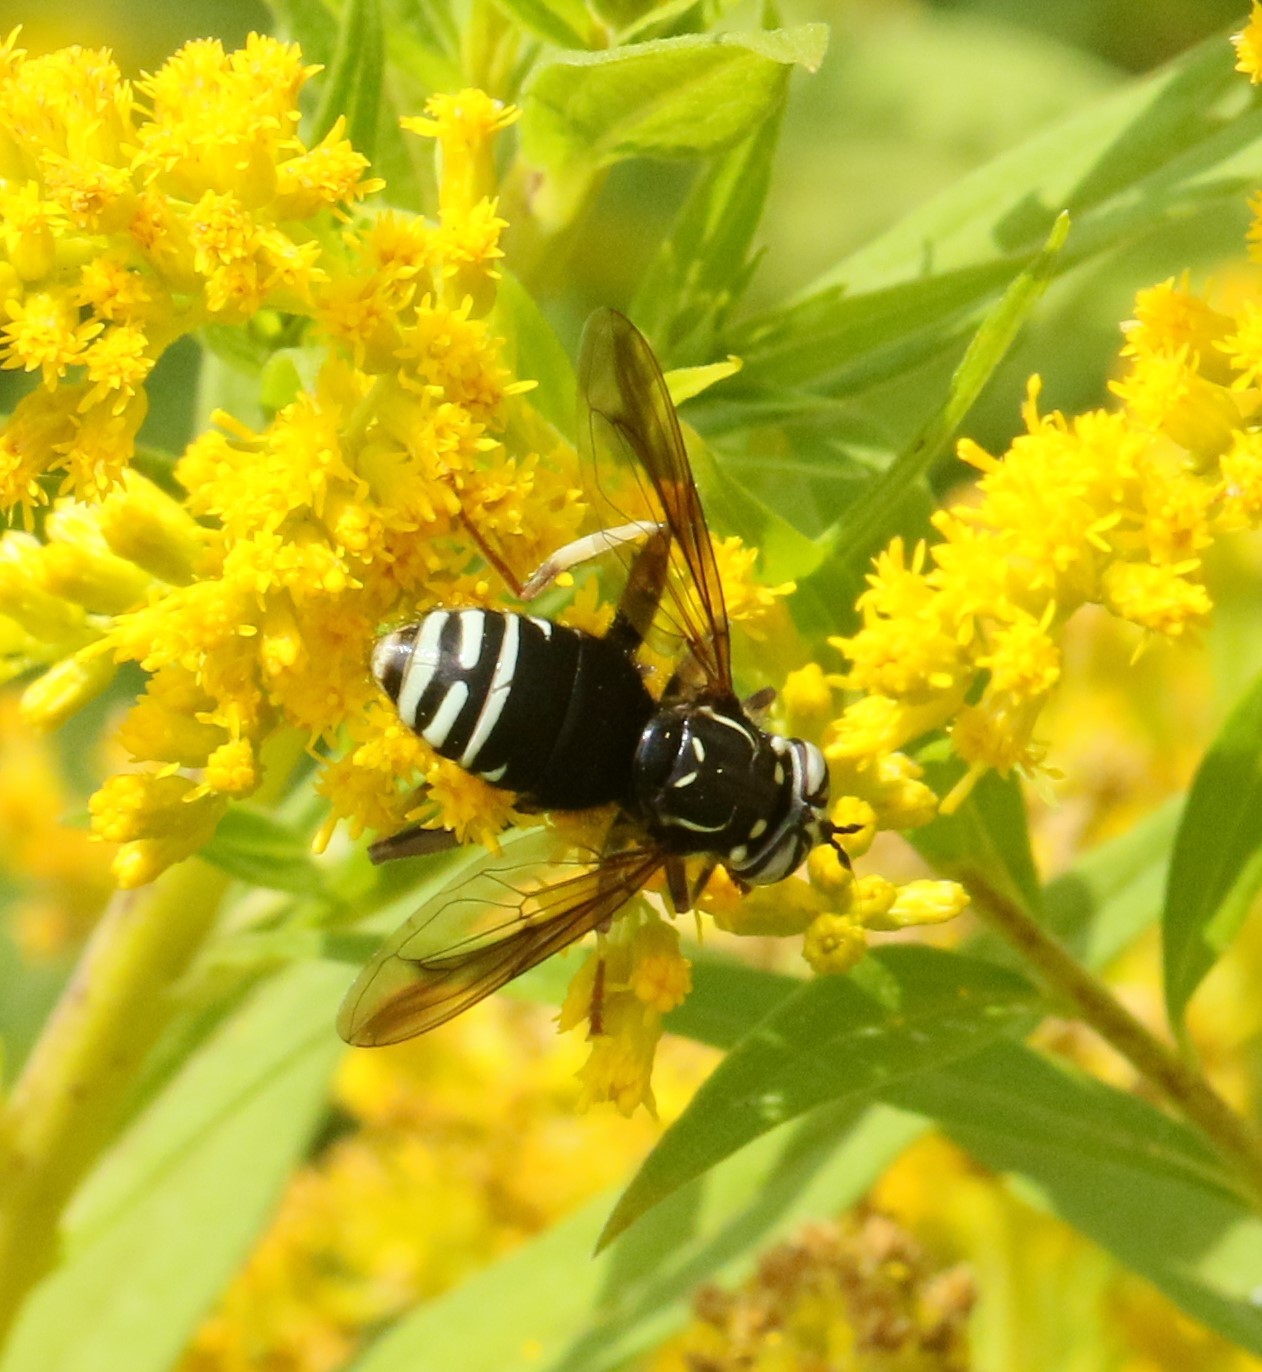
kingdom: Animalia
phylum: Arthropoda
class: Insecta
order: Diptera
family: Syrphidae
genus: Spilomyia
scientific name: Spilomyia fusca
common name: Bald-faced hornet fly
